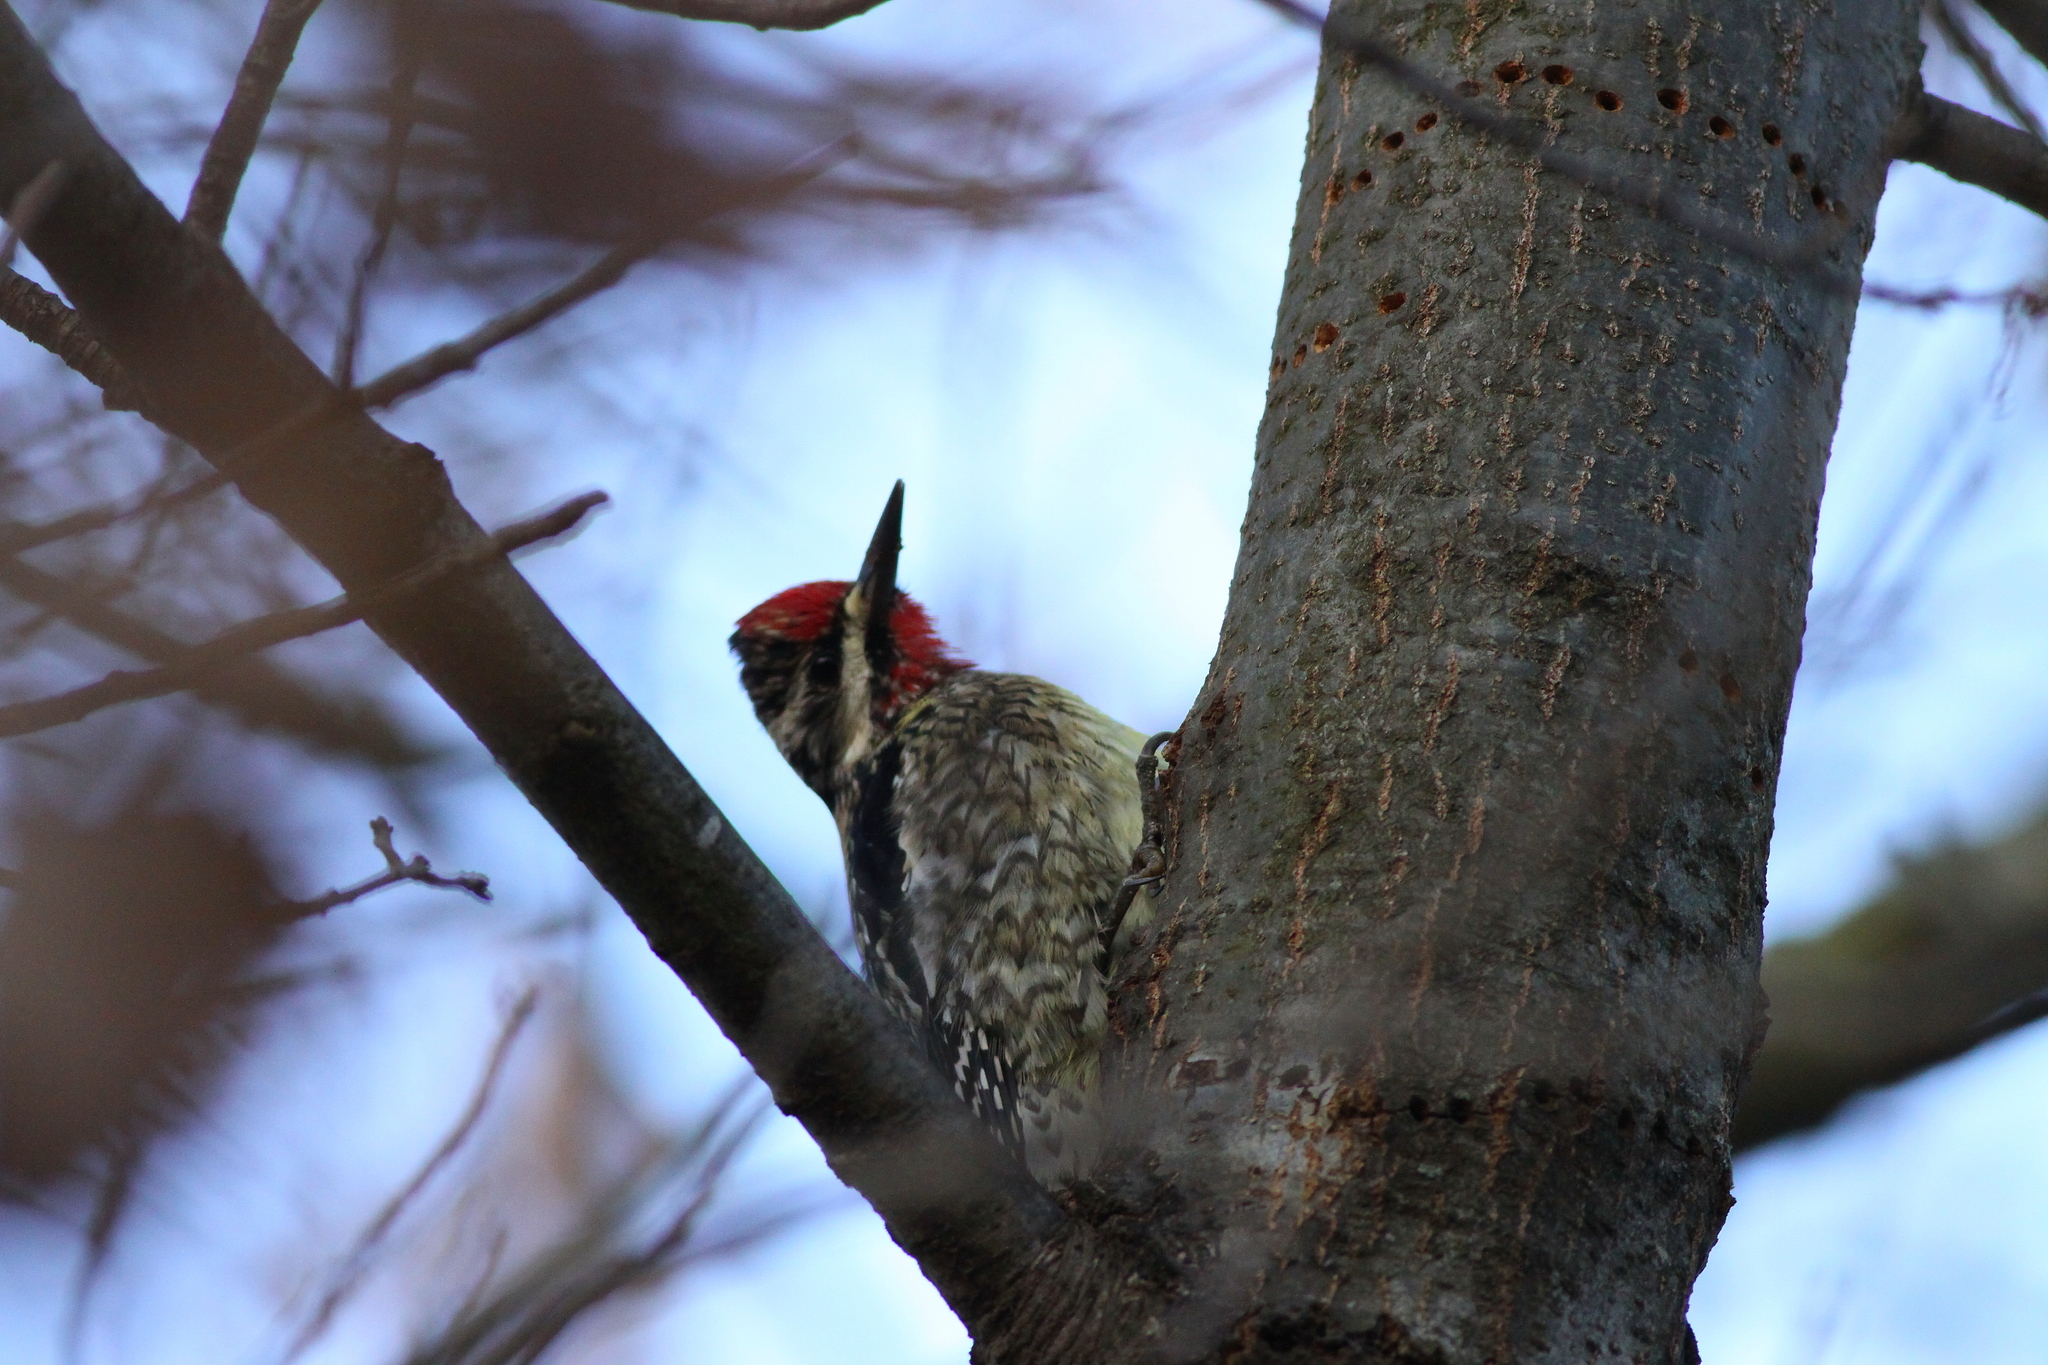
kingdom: Animalia
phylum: Chordata
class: Aves
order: Piciformes
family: Picidae
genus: Sphyrapicus
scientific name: Sphyrapicus varius
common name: Yellow-bellied sapsucker
